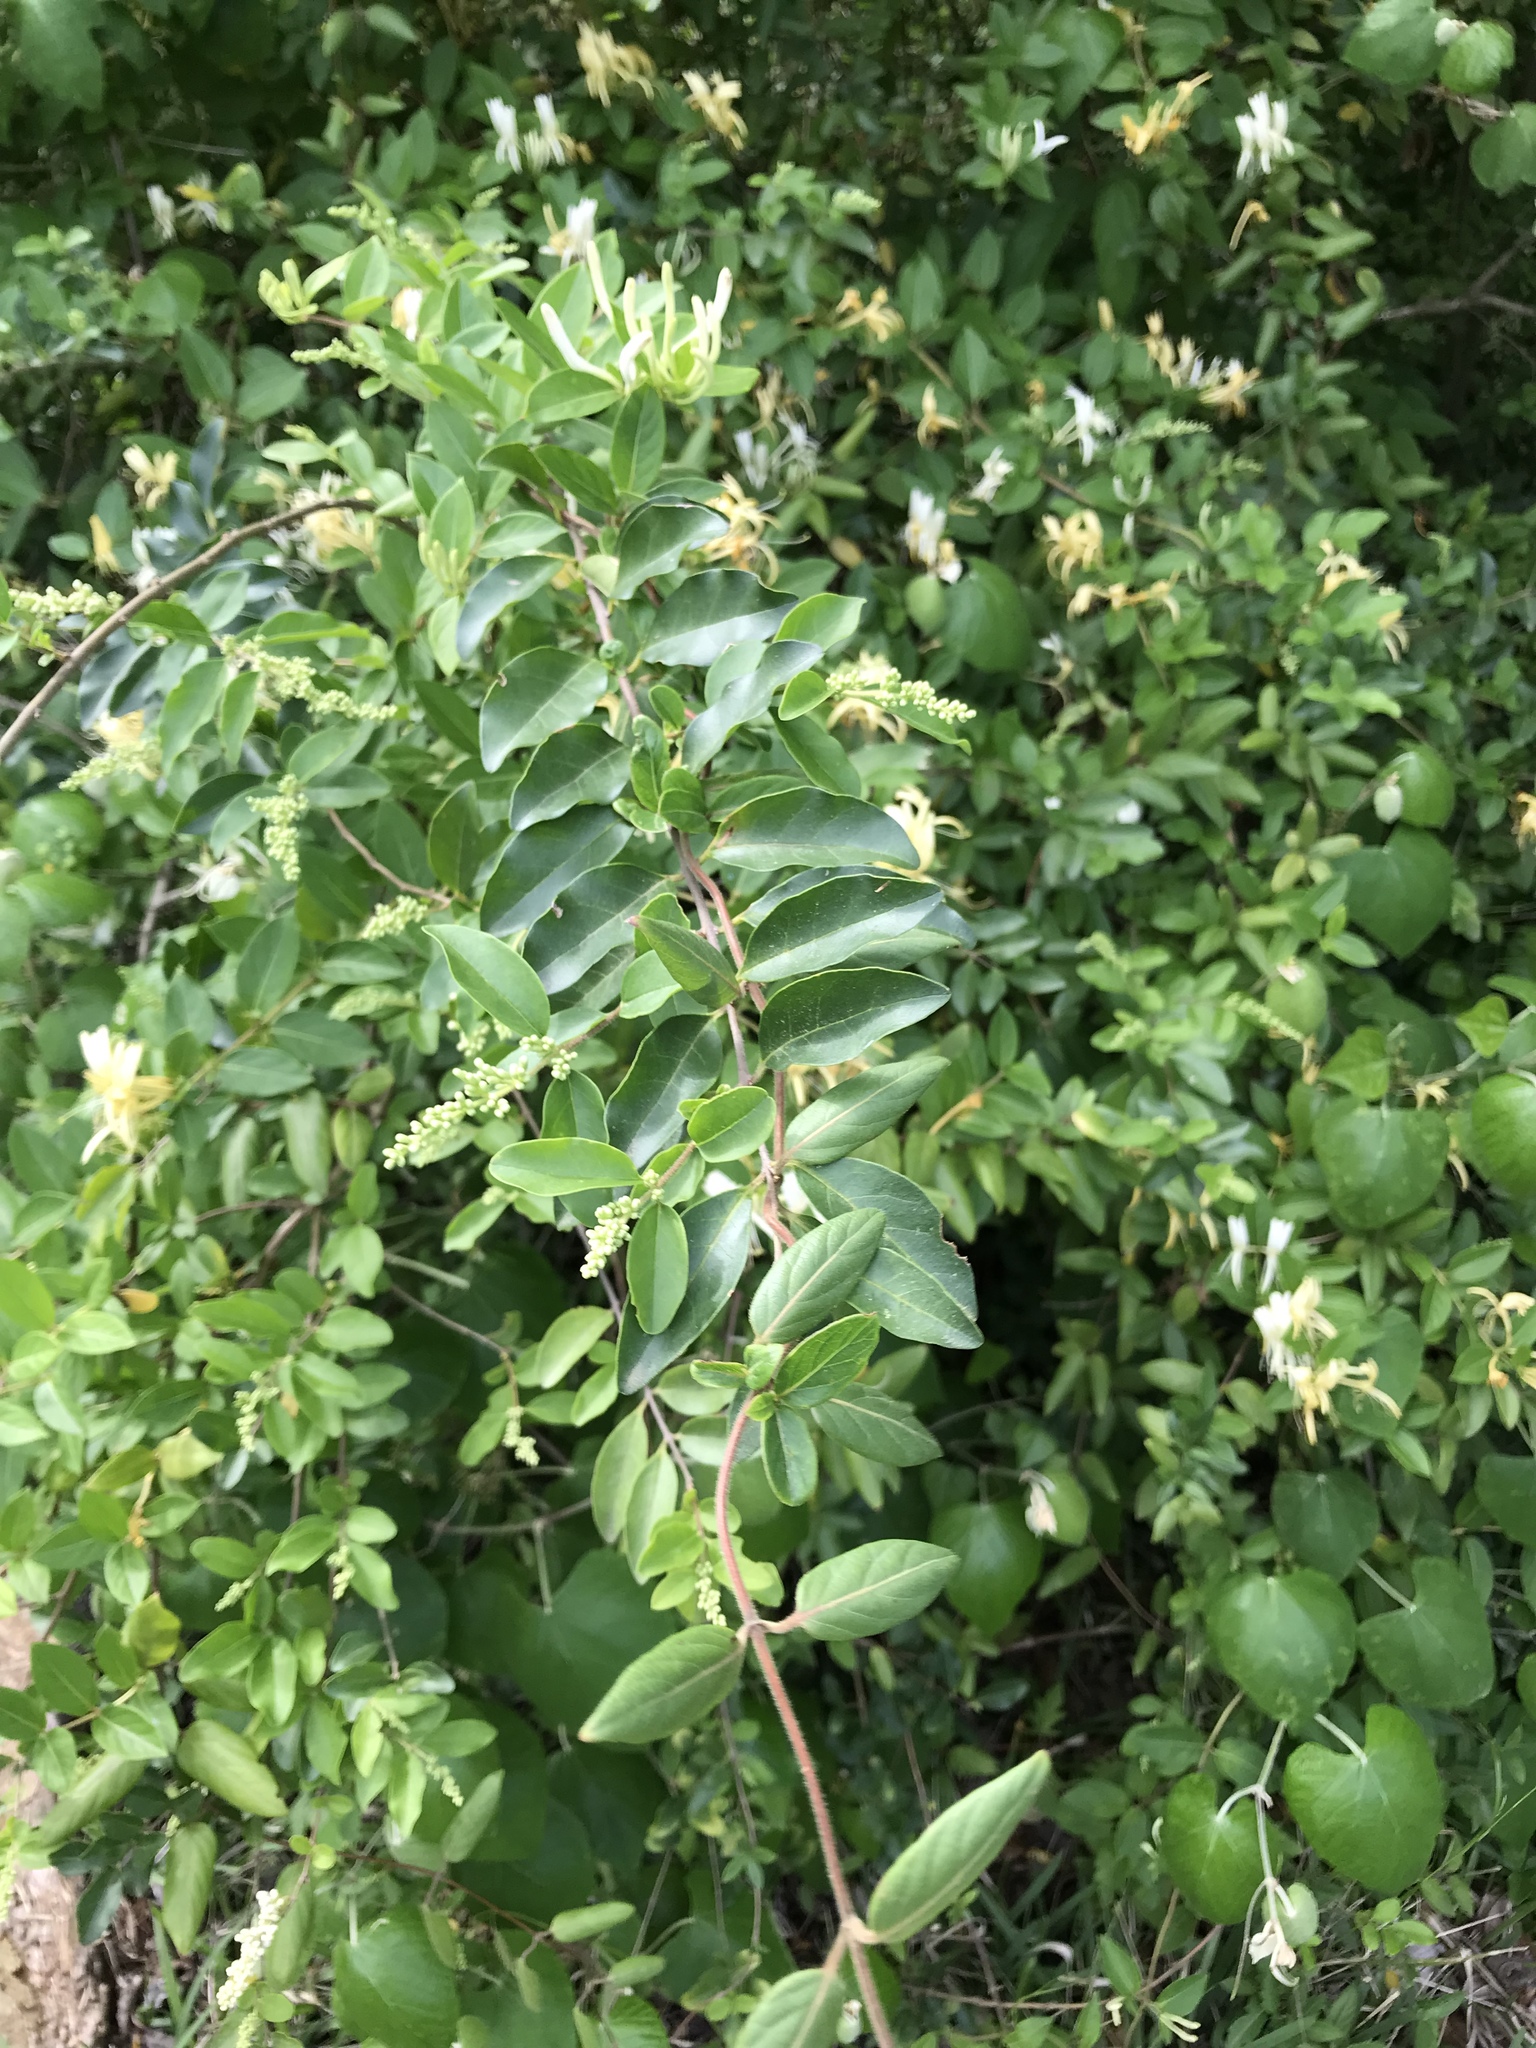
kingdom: Plantae
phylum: Tracheophyta
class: Magnoliopsida
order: Lamiales
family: Oleaceae
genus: Ligustrum
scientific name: Ligustrum sinense
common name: Chinese privet
